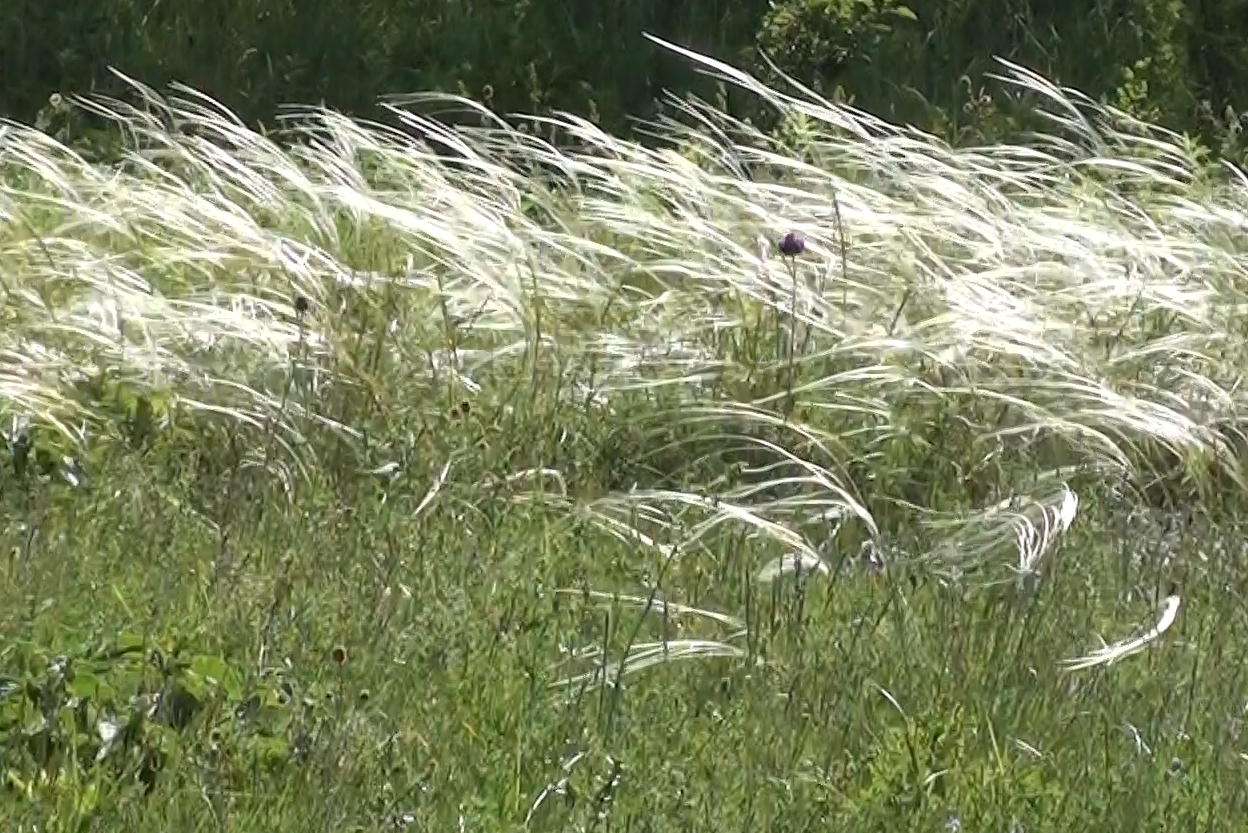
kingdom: Plantae
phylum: Tracheophyta
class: Liliopsida
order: Poales
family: Poaceae
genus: Stipa
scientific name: Stipa pennata
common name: European feather grass
